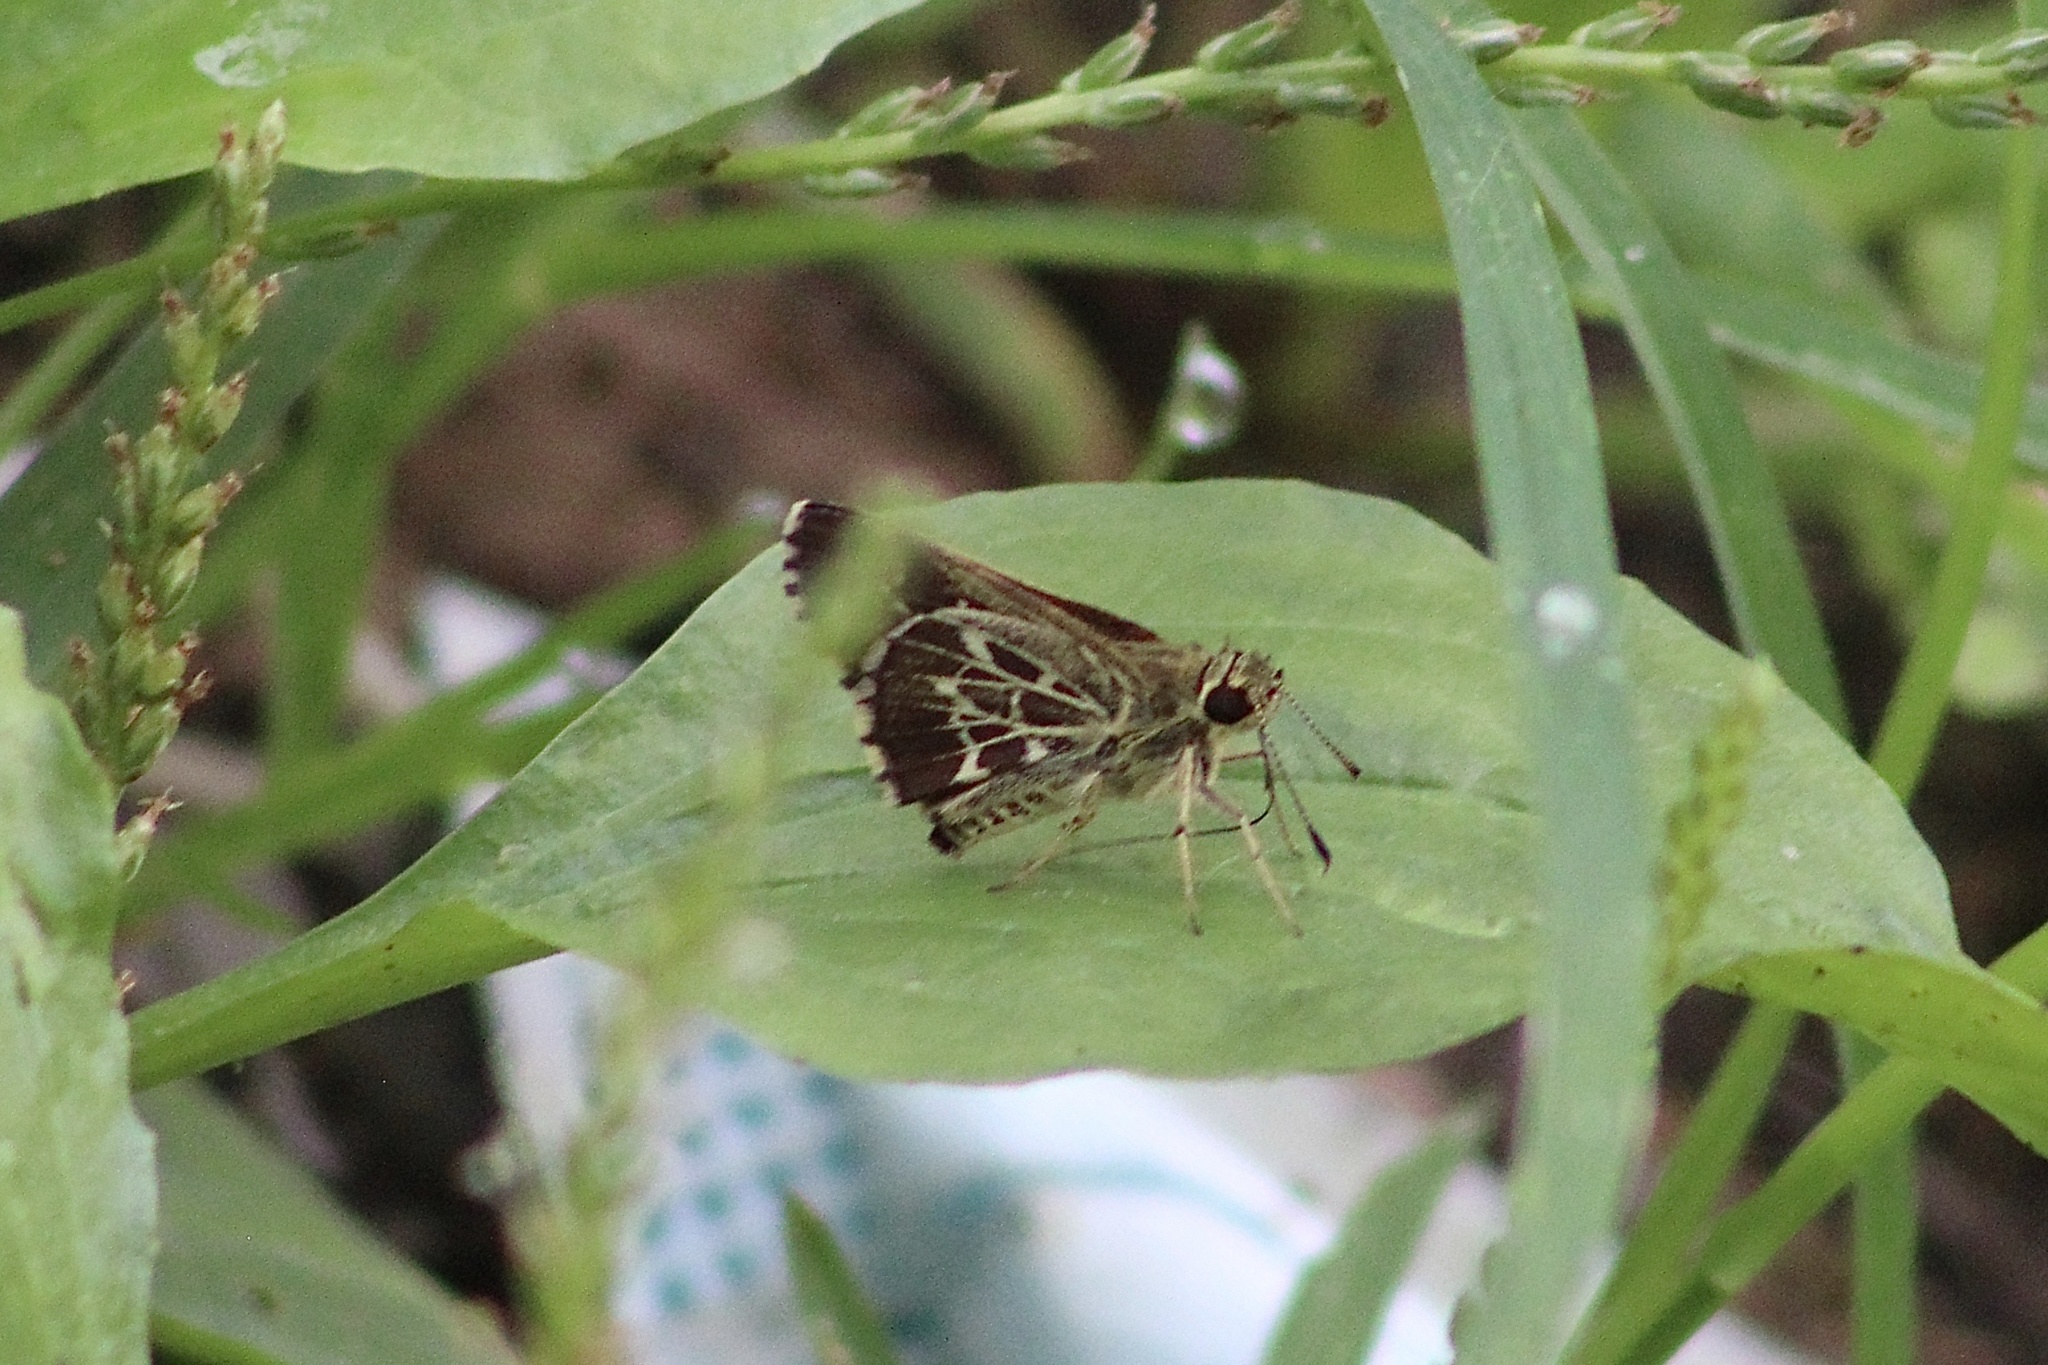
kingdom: Animalia
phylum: Arthropoda
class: Insecta
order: Lepidoptera
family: Hesperiidae
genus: Mastor
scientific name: Mastor aesculapius
